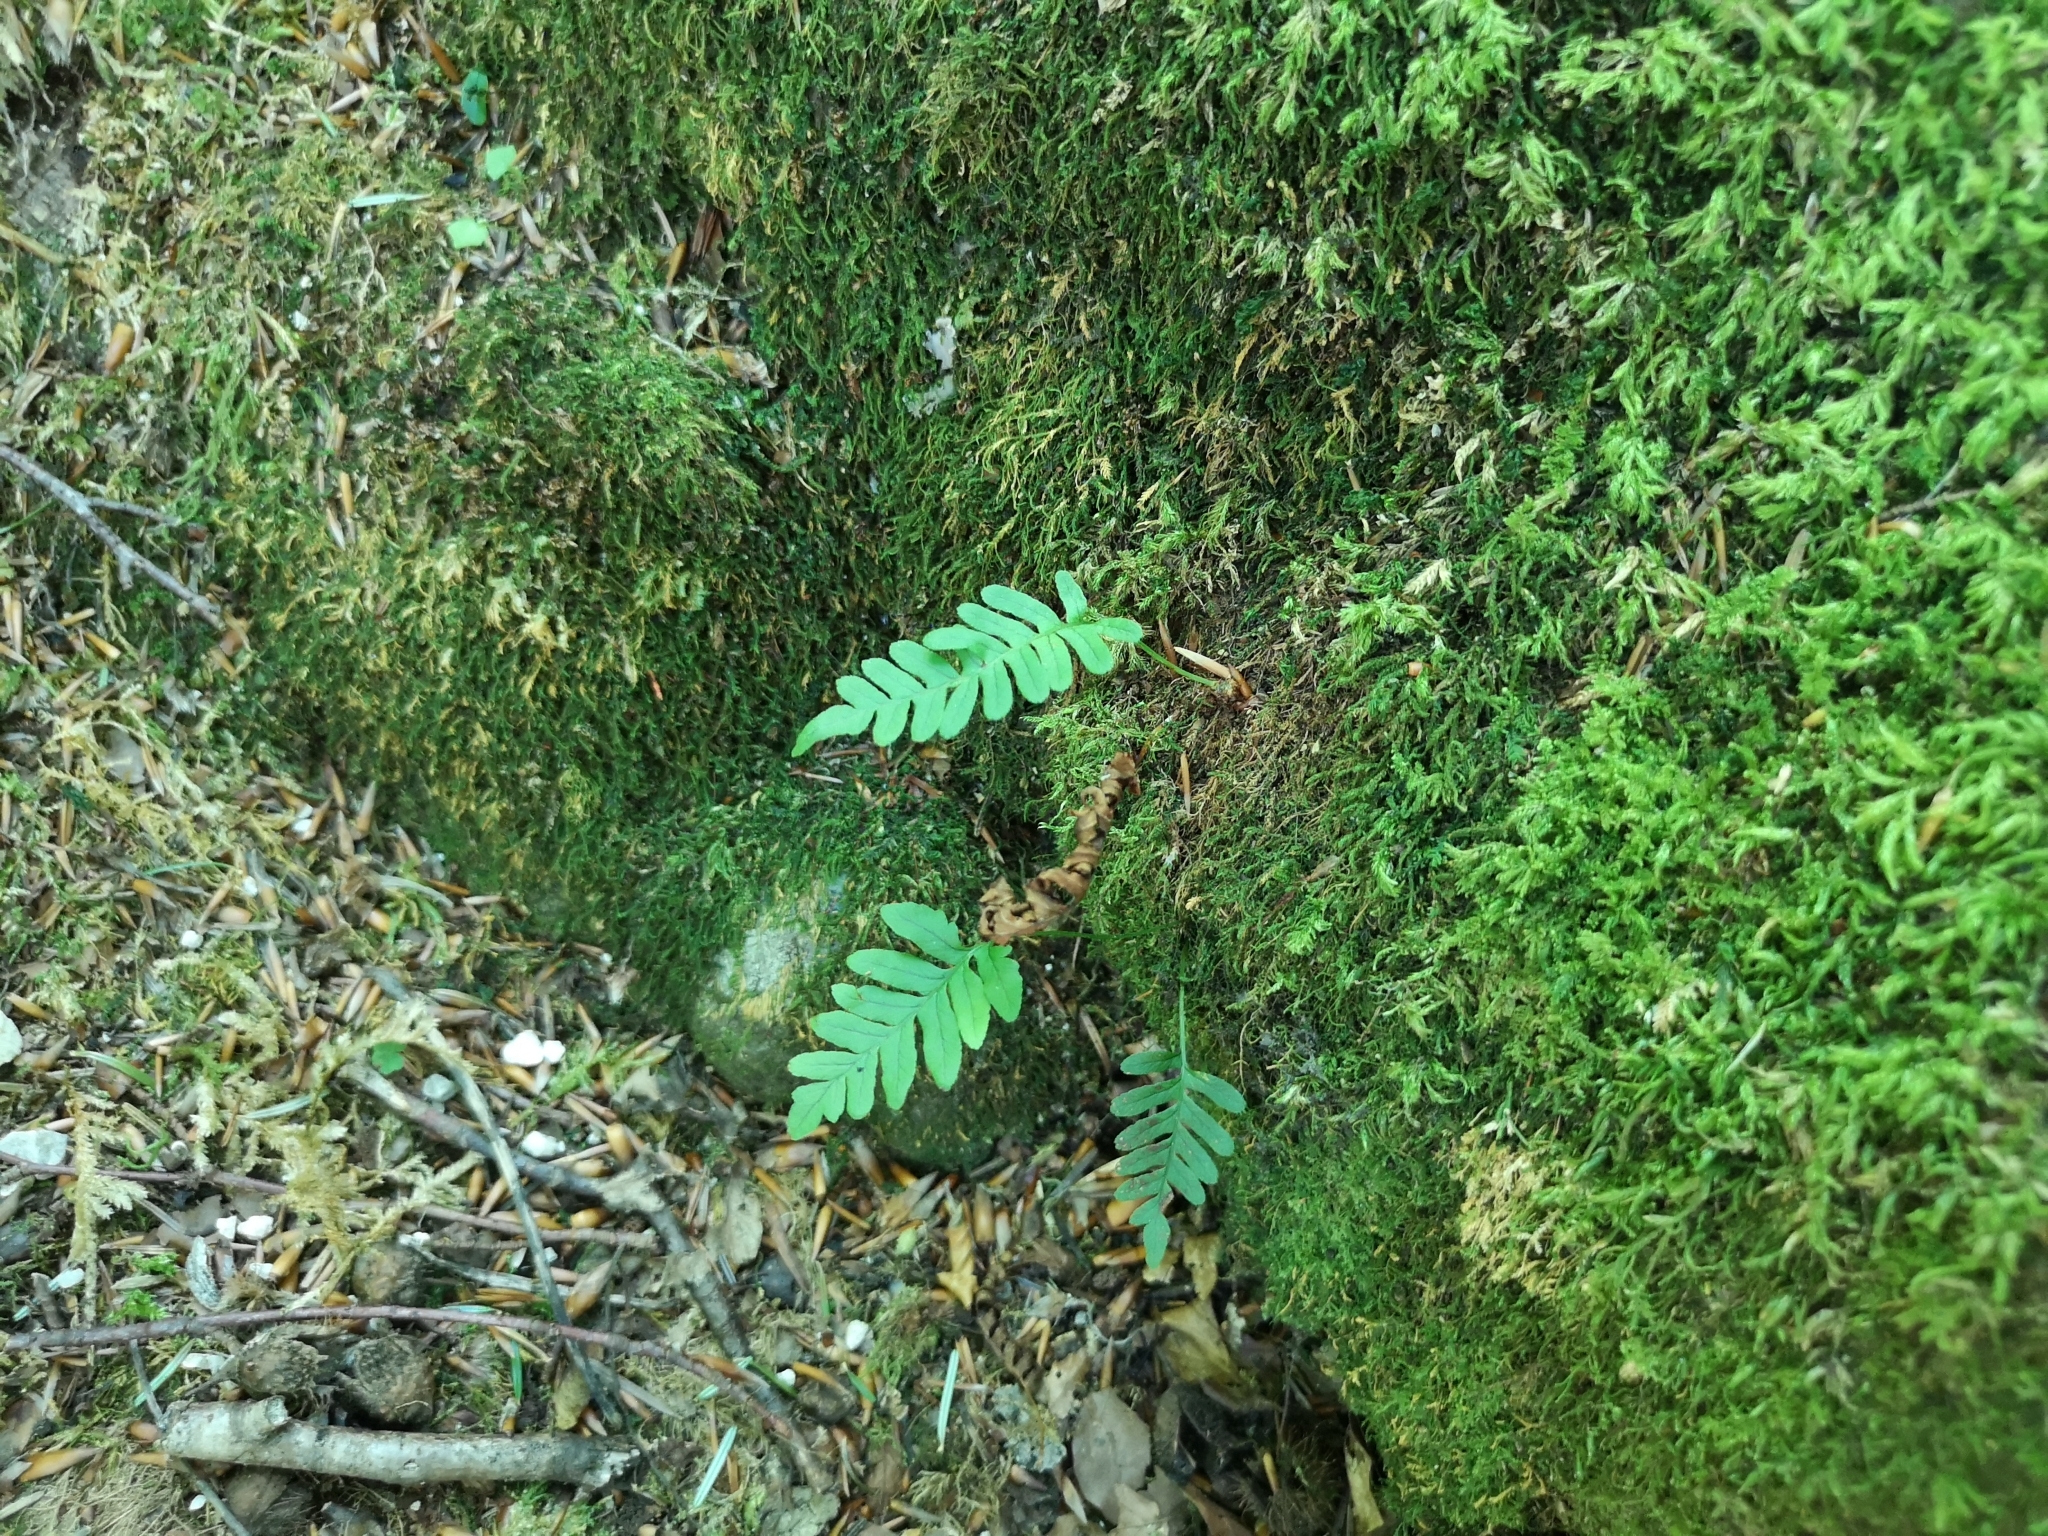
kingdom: Plantae
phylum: Tracheophyta
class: Polypodiopsida
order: Polypodiales
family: Polypodiaceae
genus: Polypodium
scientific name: Polypodium vulgare
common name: Common polypody
